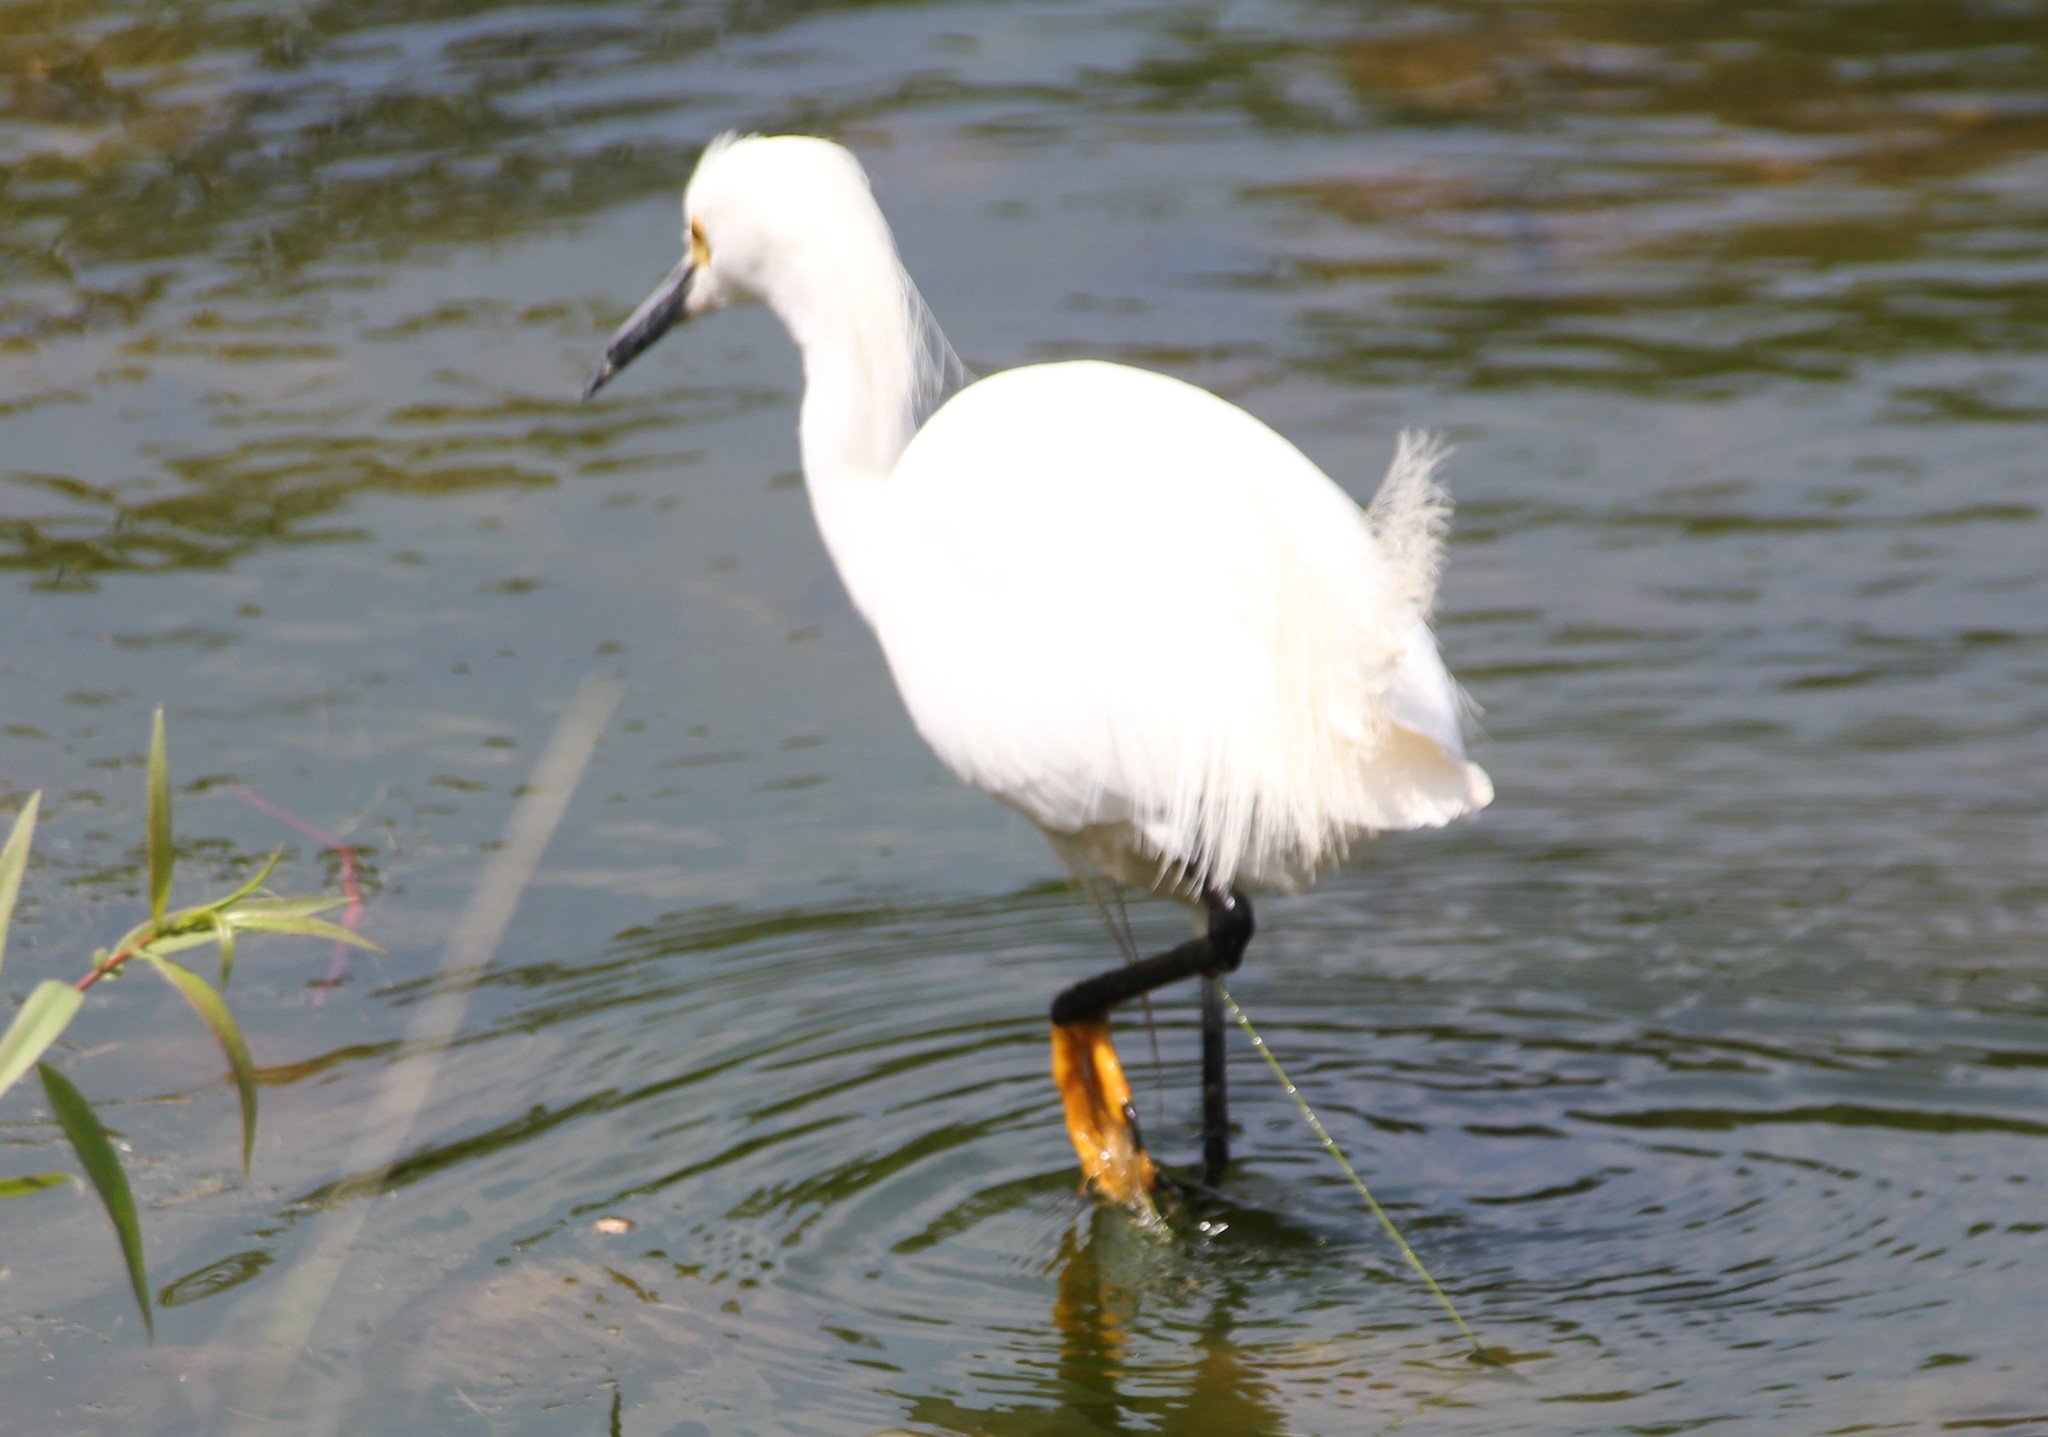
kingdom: Animalia
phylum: Chordata
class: Aves
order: Pelecaniformes
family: Ardeidae
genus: Egretta
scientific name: Egretta thula
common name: Snowy egret
